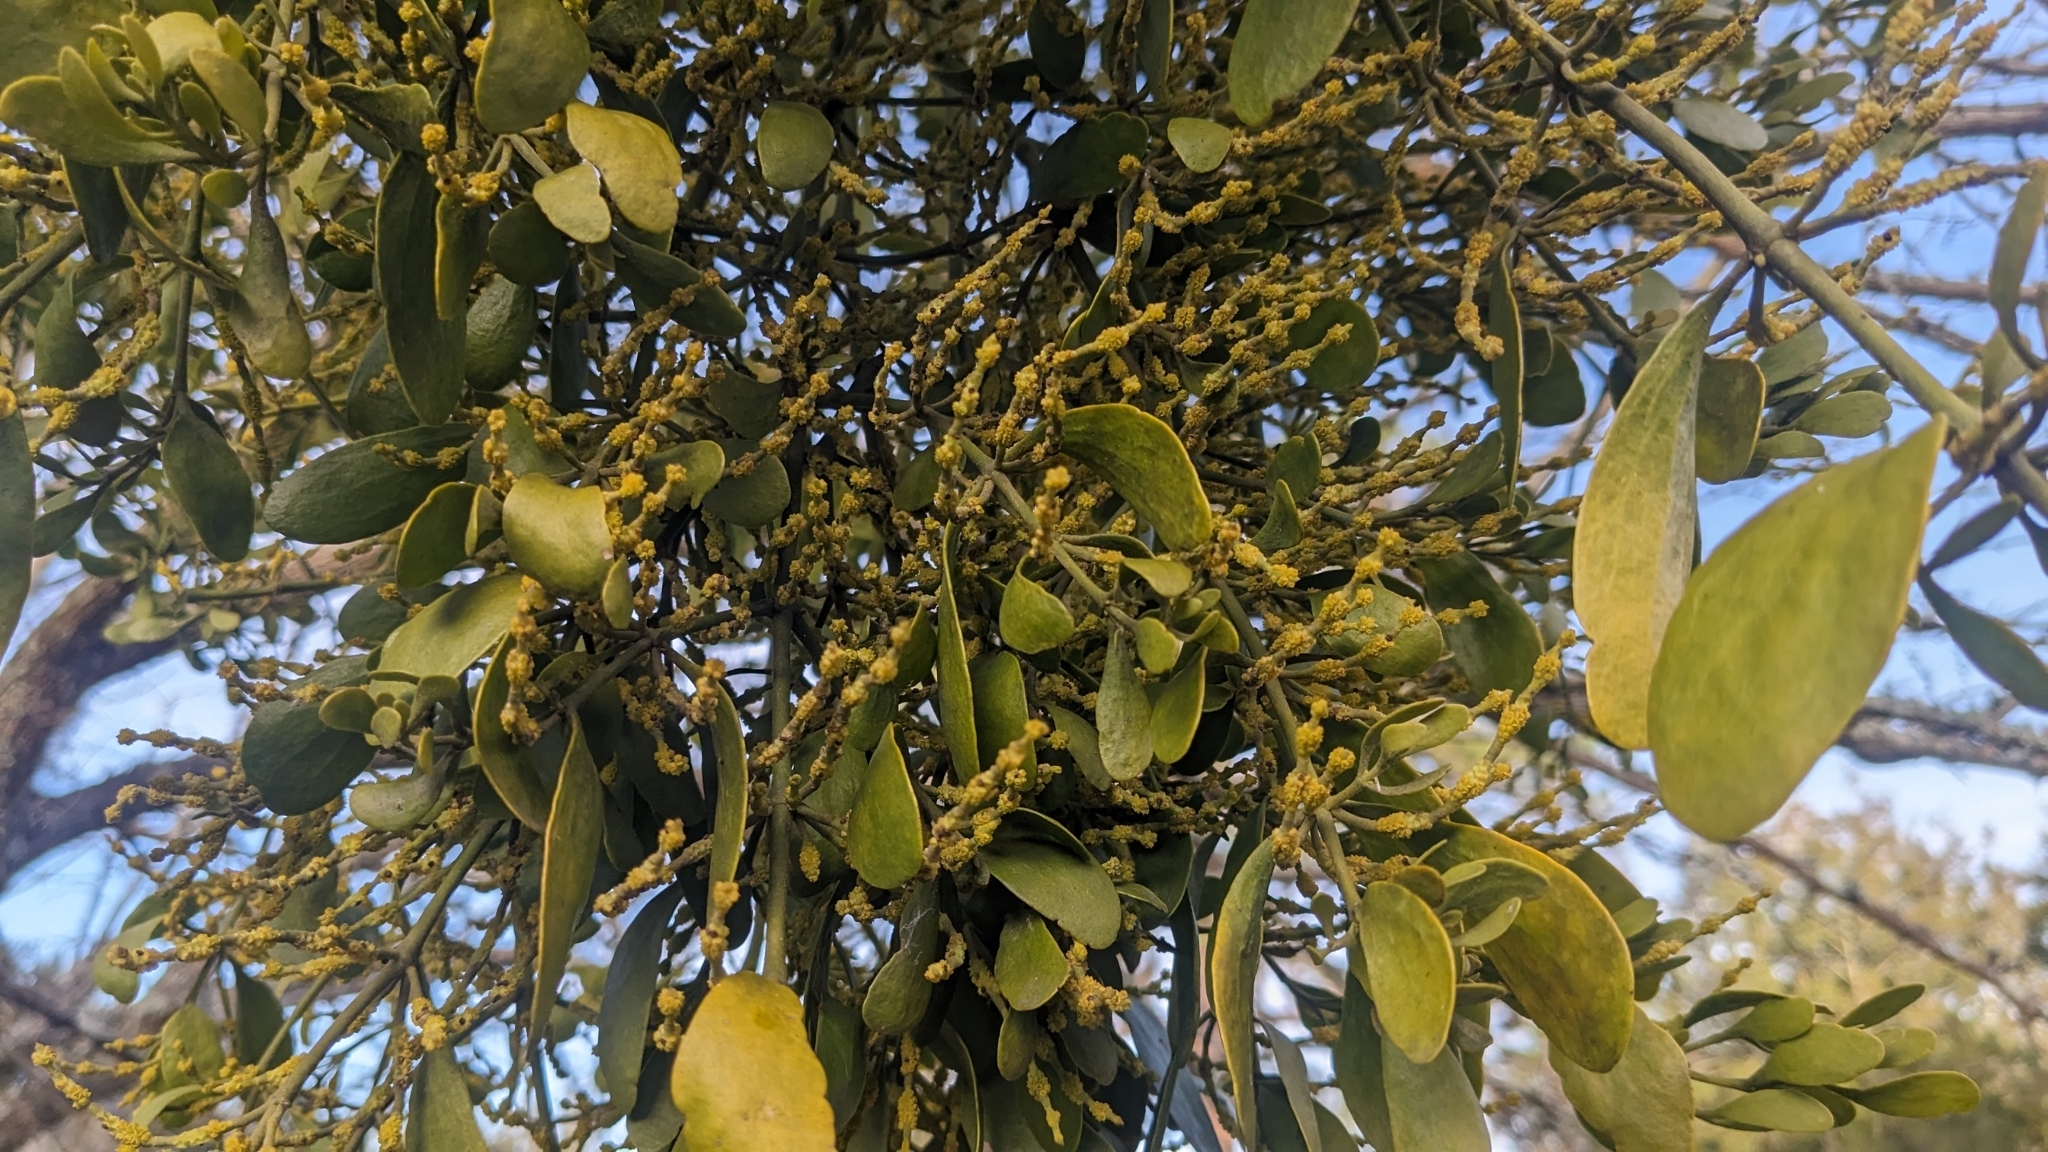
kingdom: Plantae
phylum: Tracheophyta
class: Magnoliopsida
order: Santalales
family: Viscaceae
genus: Phoradendron
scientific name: Phoradendron leucarpum
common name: Pacific mistletoe
